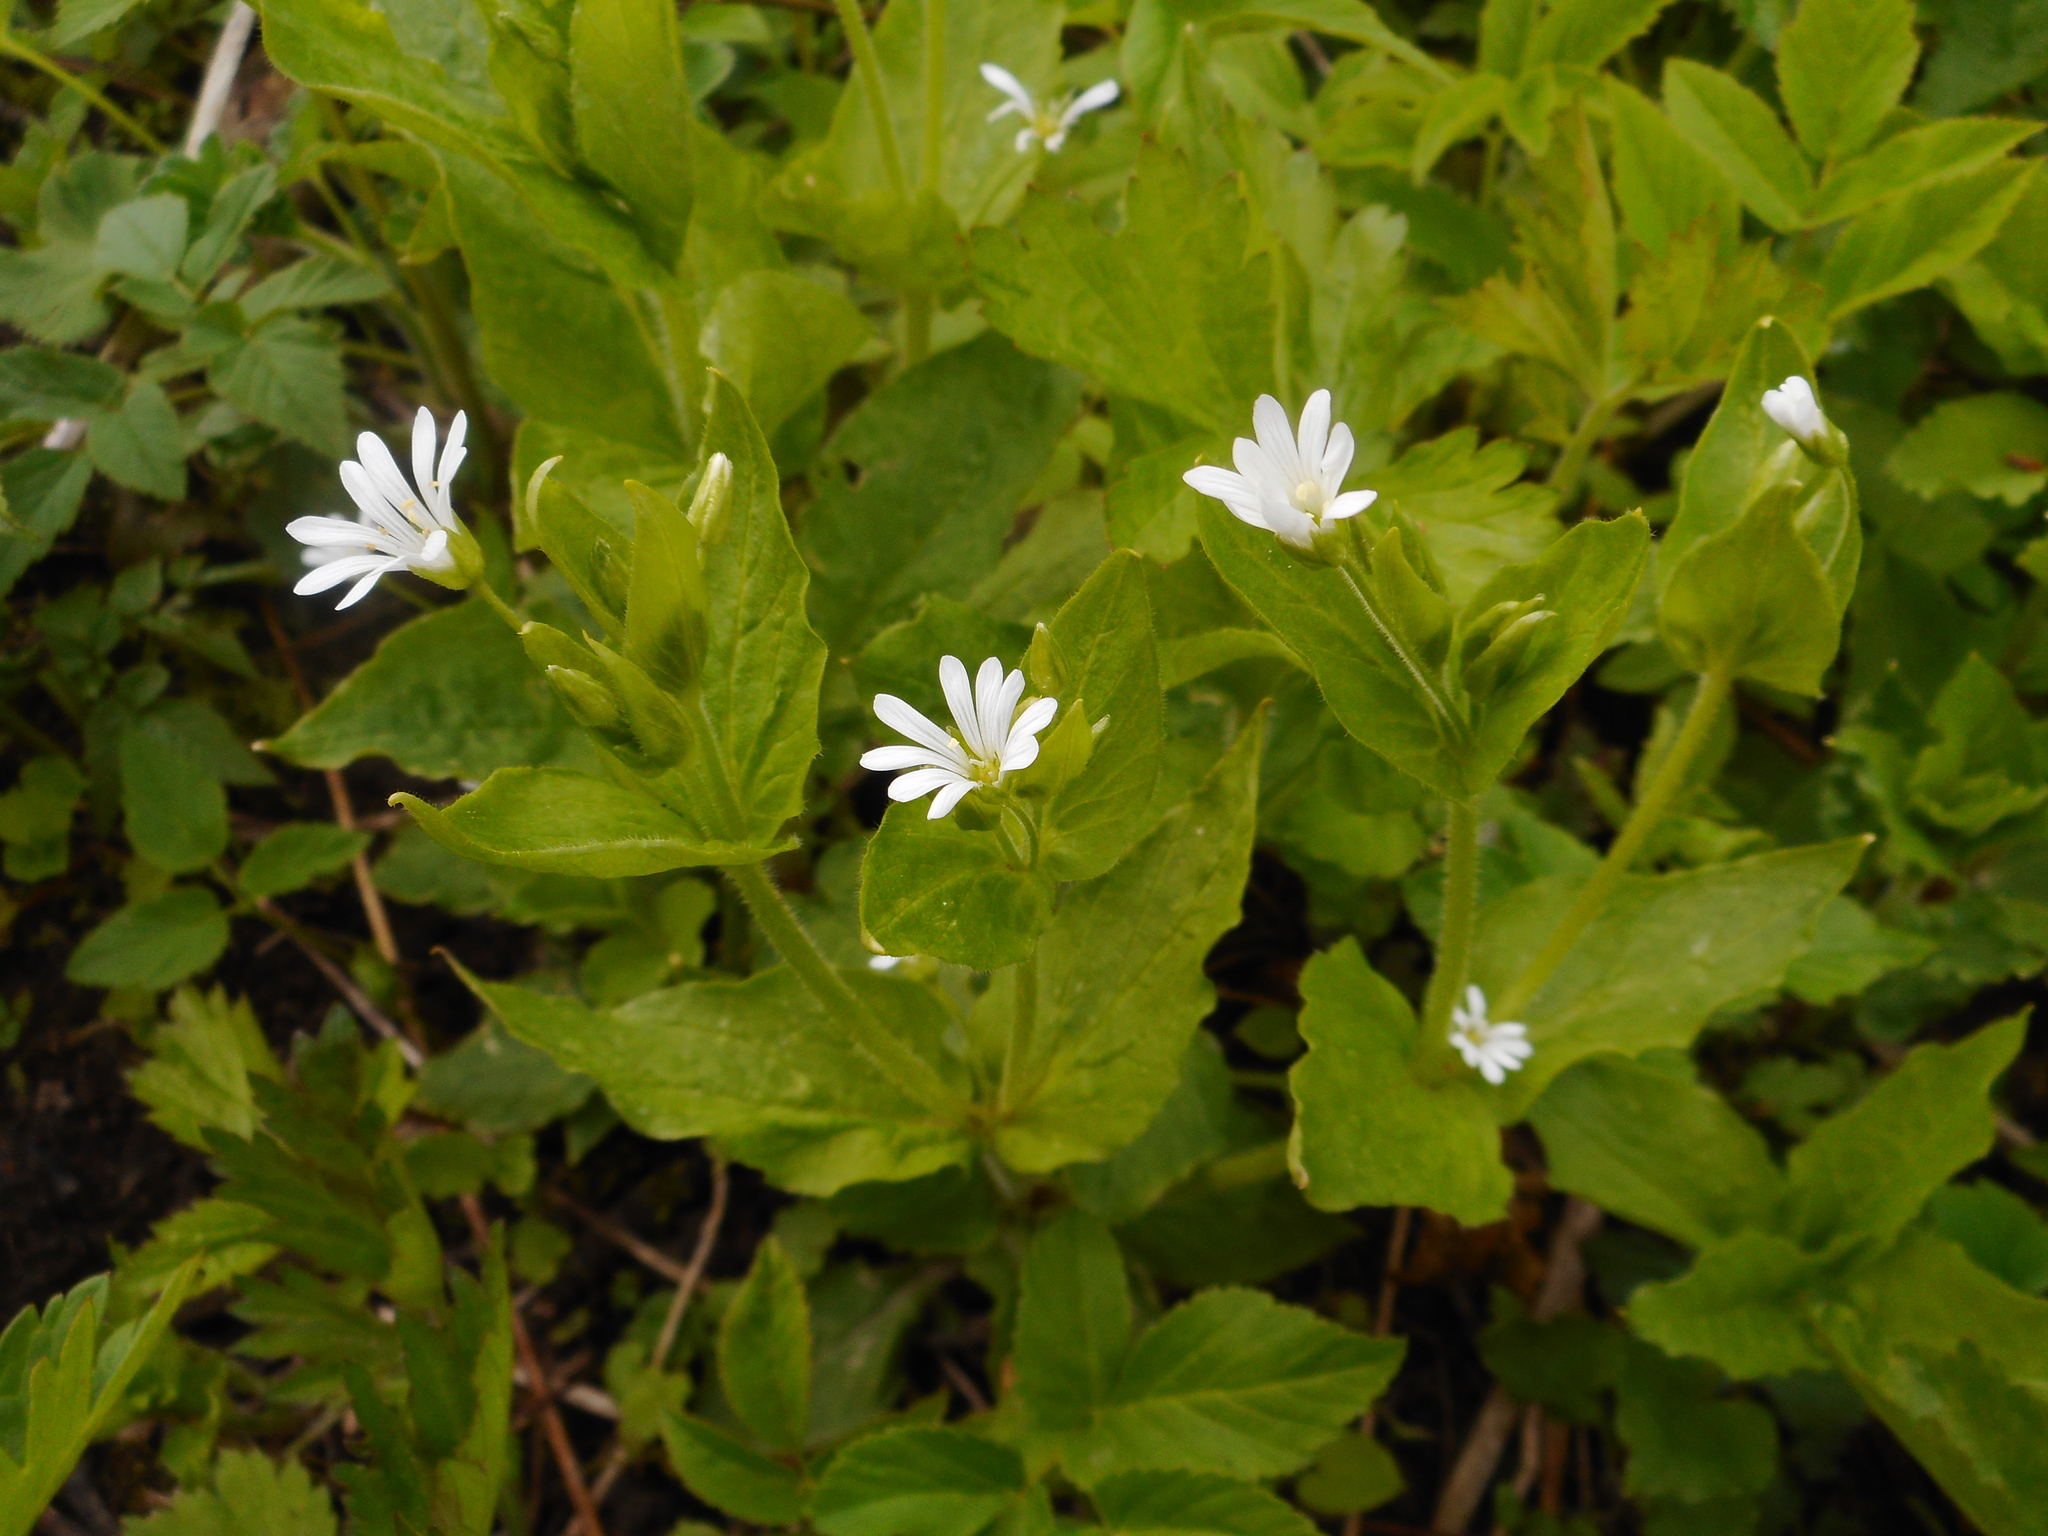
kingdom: Plantae
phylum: Tracheophyta
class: Magnoliopsida
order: Caryophyllales
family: Caryophyllaceae
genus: Stellaria
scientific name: Stellaria nemorum
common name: Wood stitchwort
